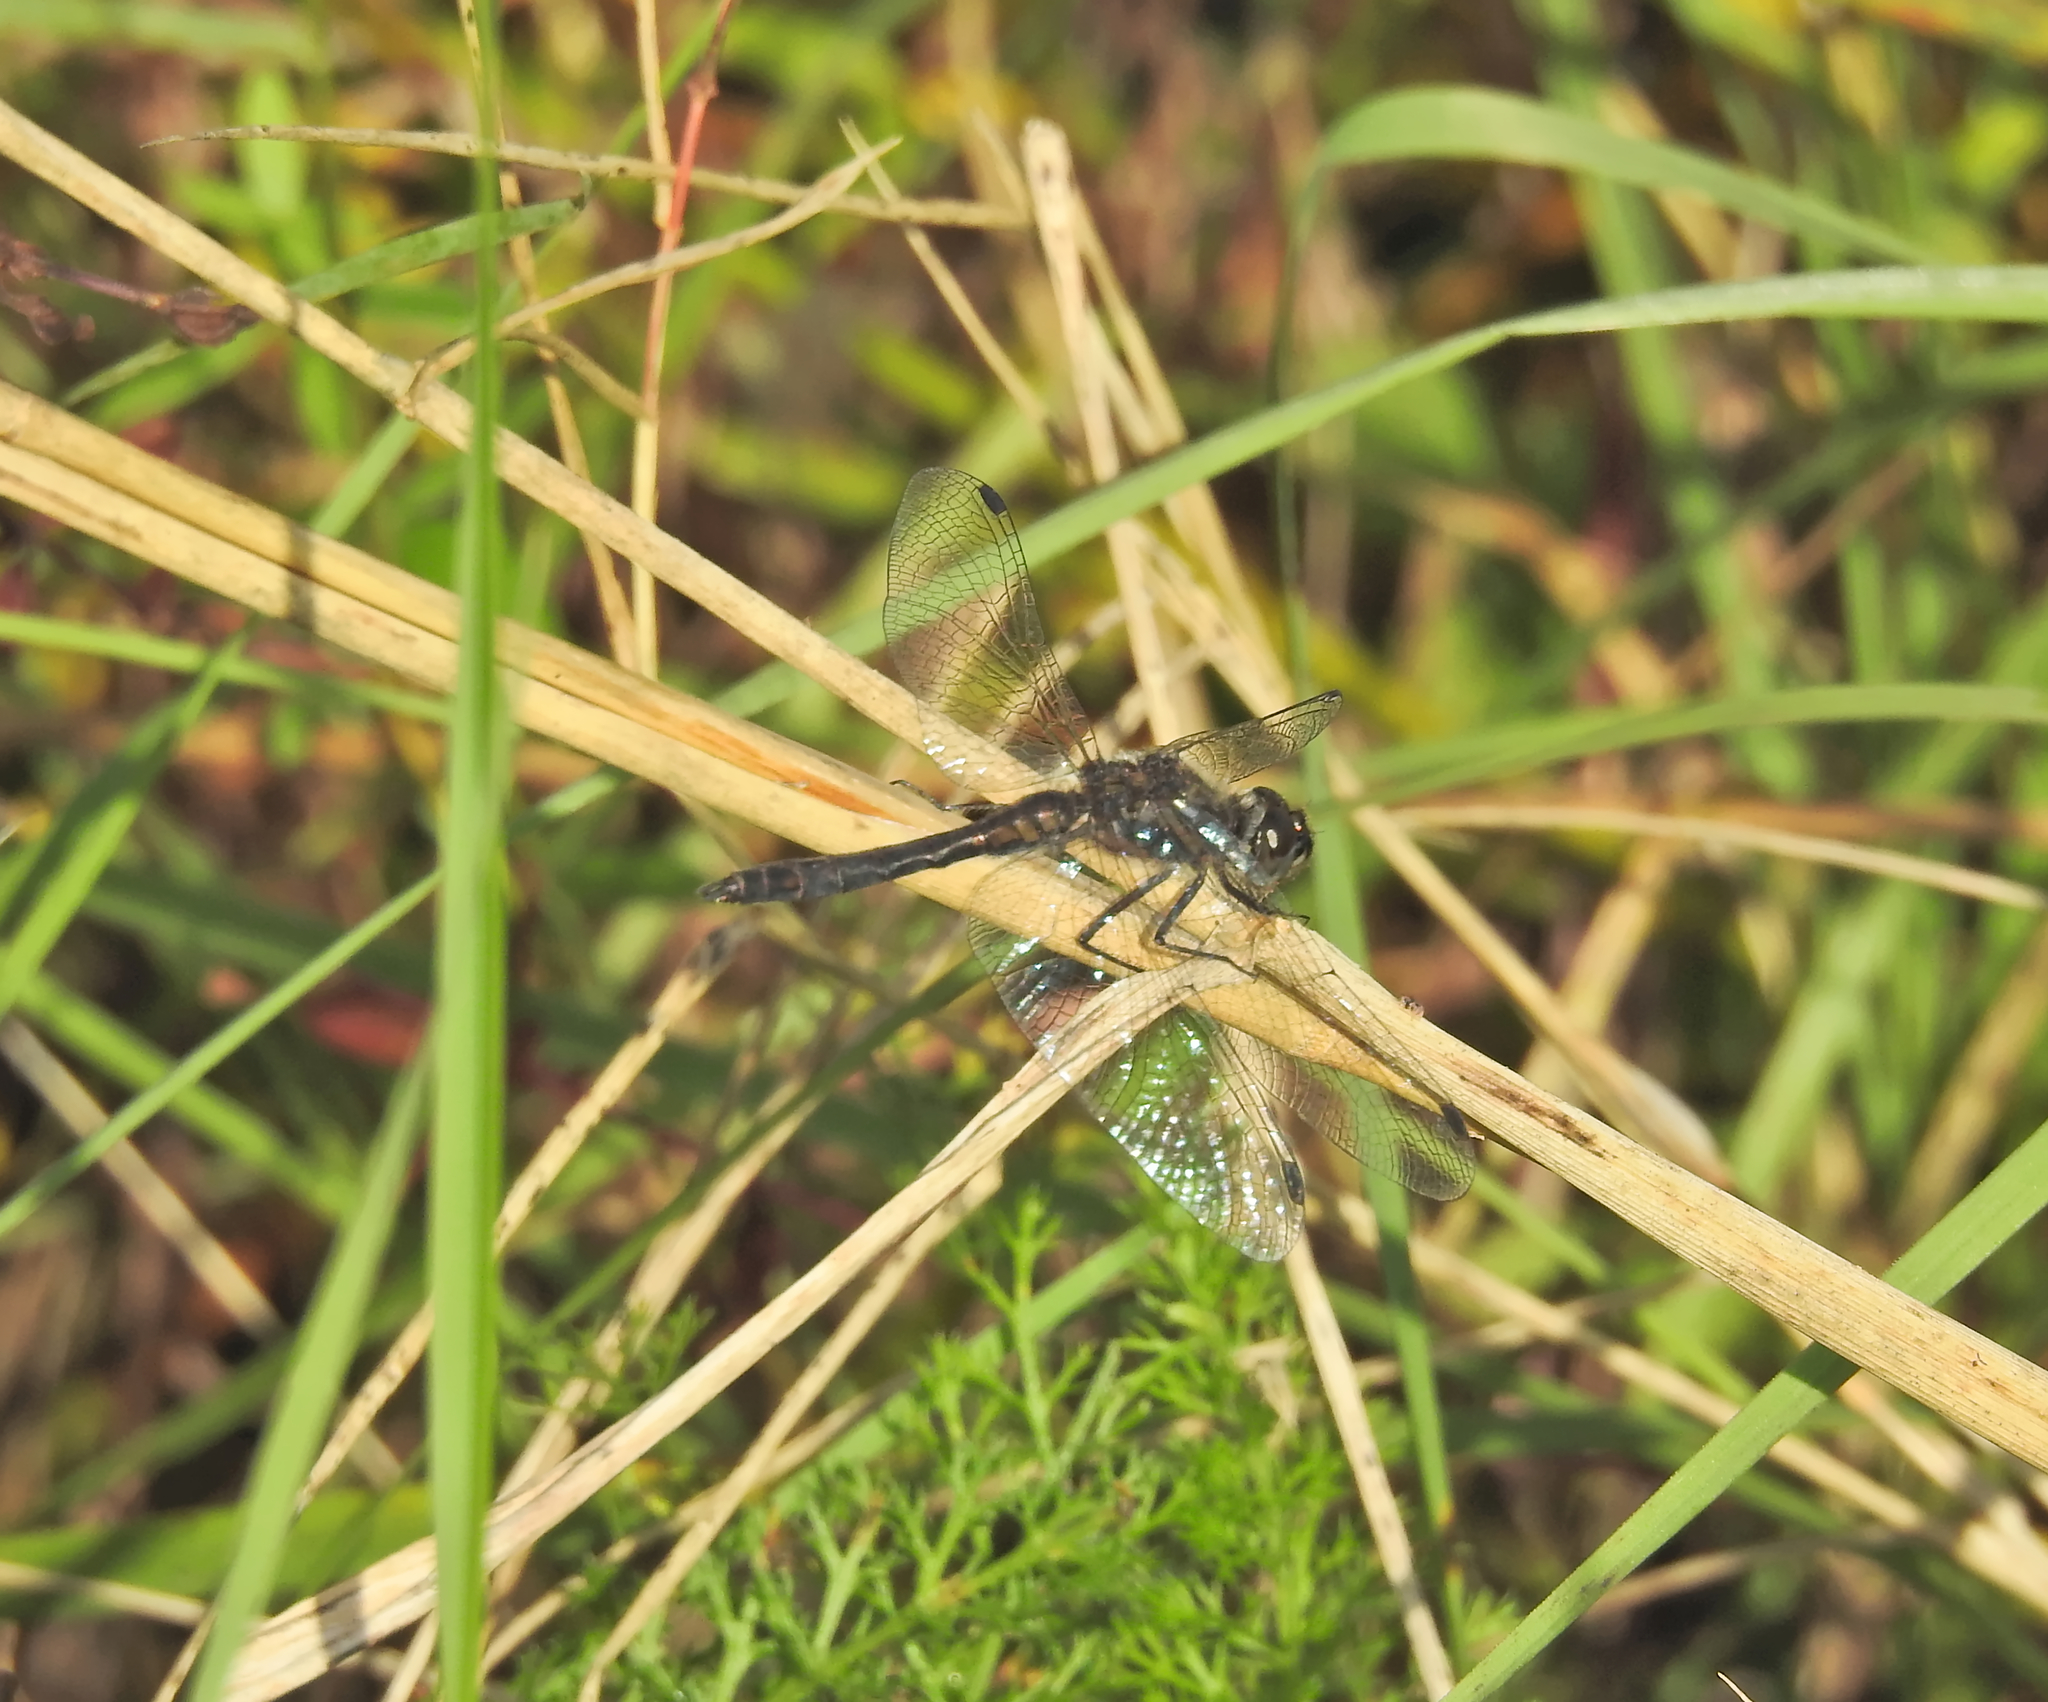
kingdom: Animalia
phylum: Arthropoda
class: Insecta
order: Odonata
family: Libellulidae
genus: Sympetrum
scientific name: Sympetrum danae
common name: Black darter
